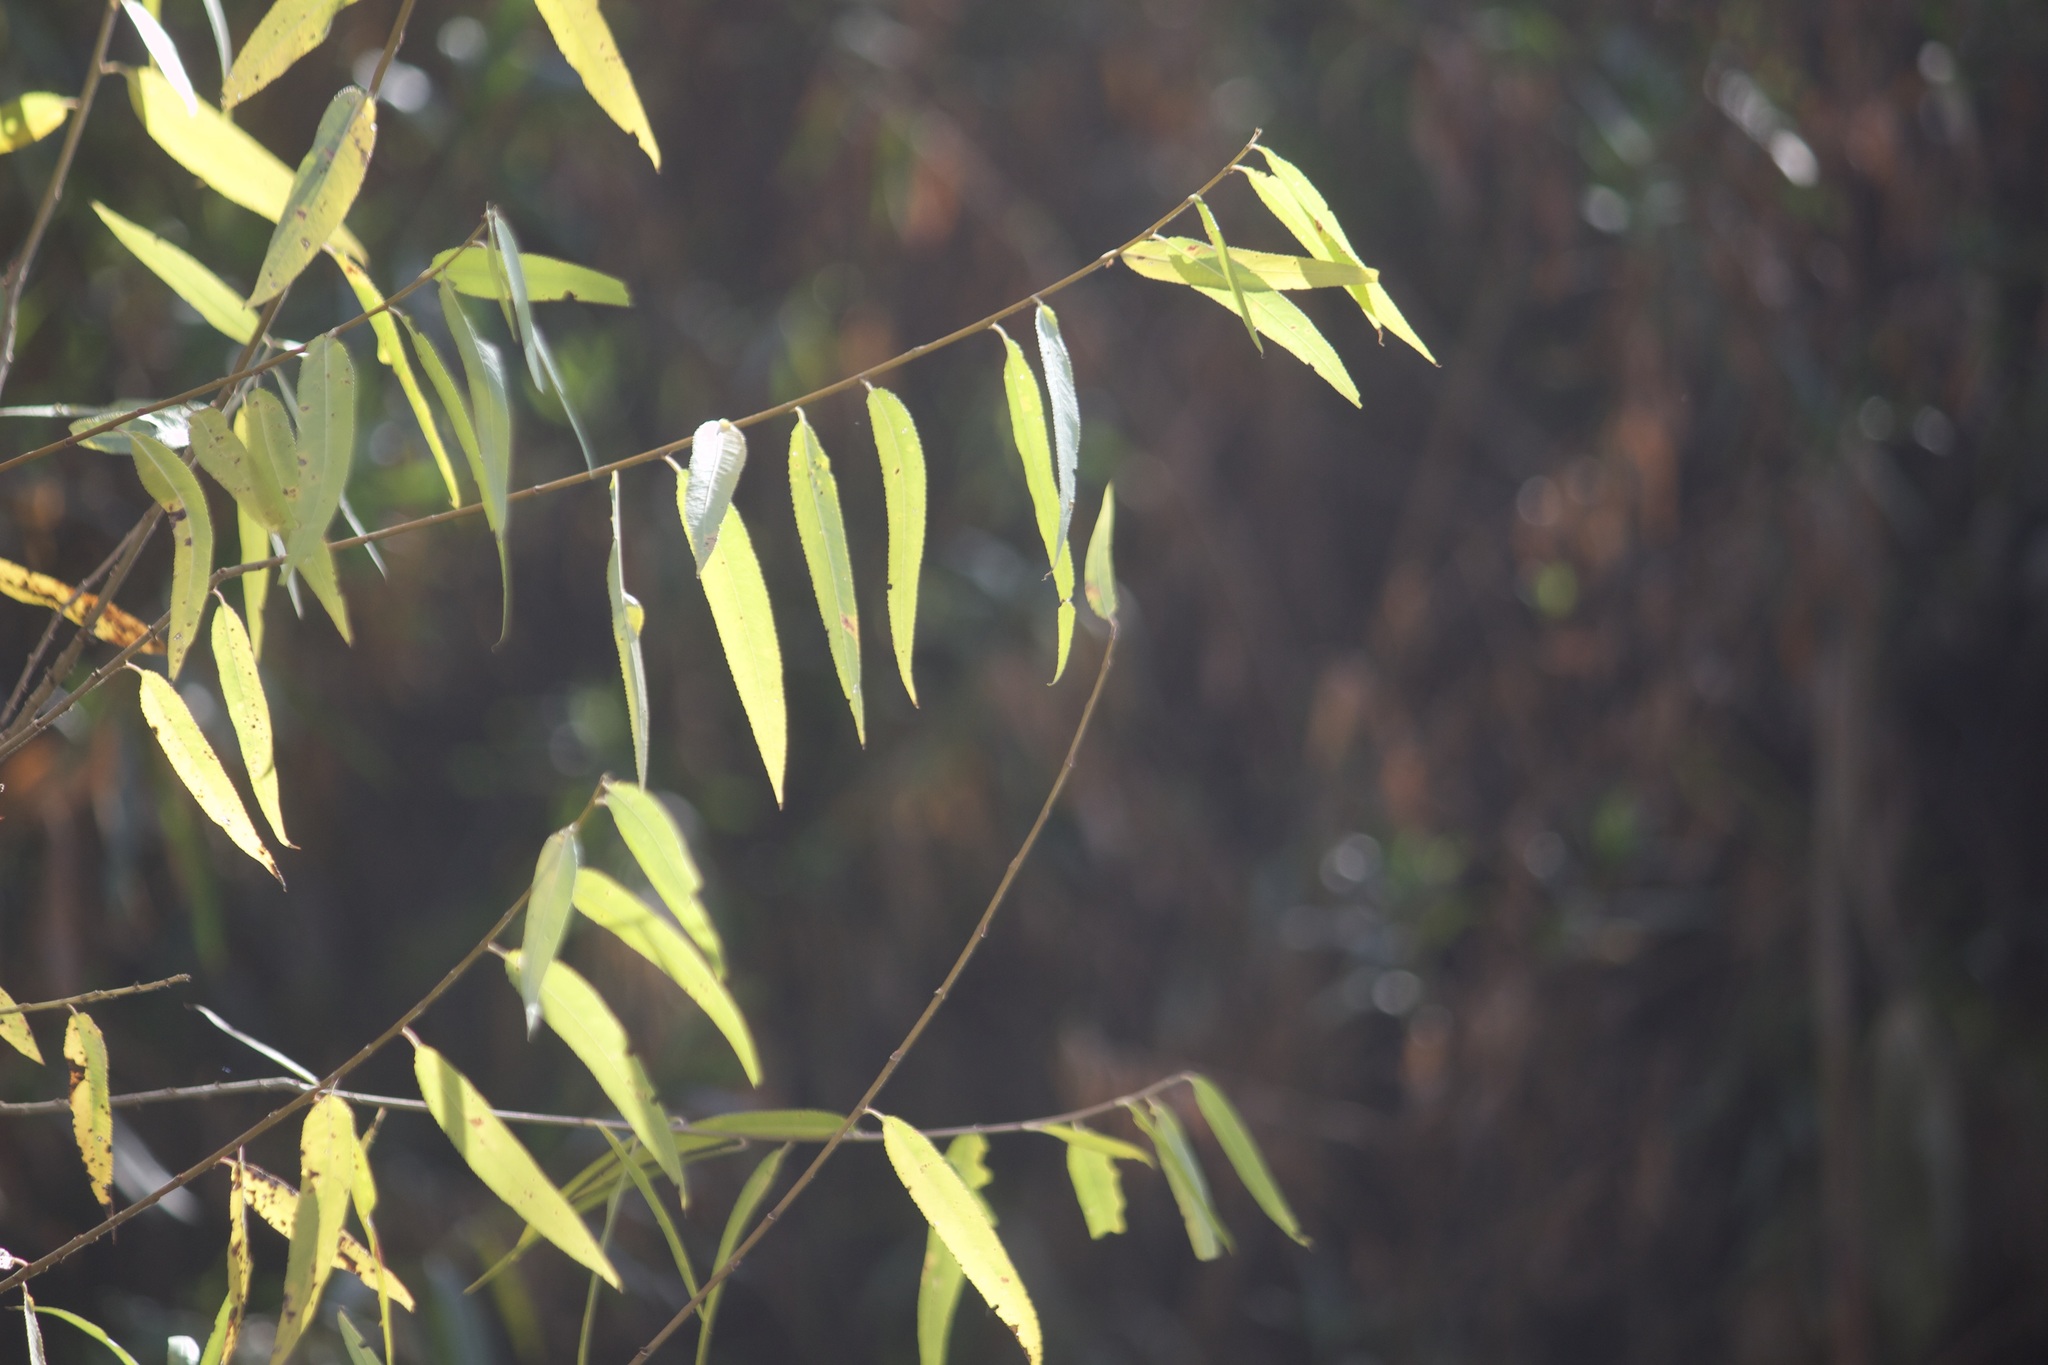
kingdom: Plantae
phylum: Tracheophyta
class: Magnoliopsida
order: Malpighiales
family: Salicaceae
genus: Salix
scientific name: Salix gooddingii
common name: Goodding's willow
